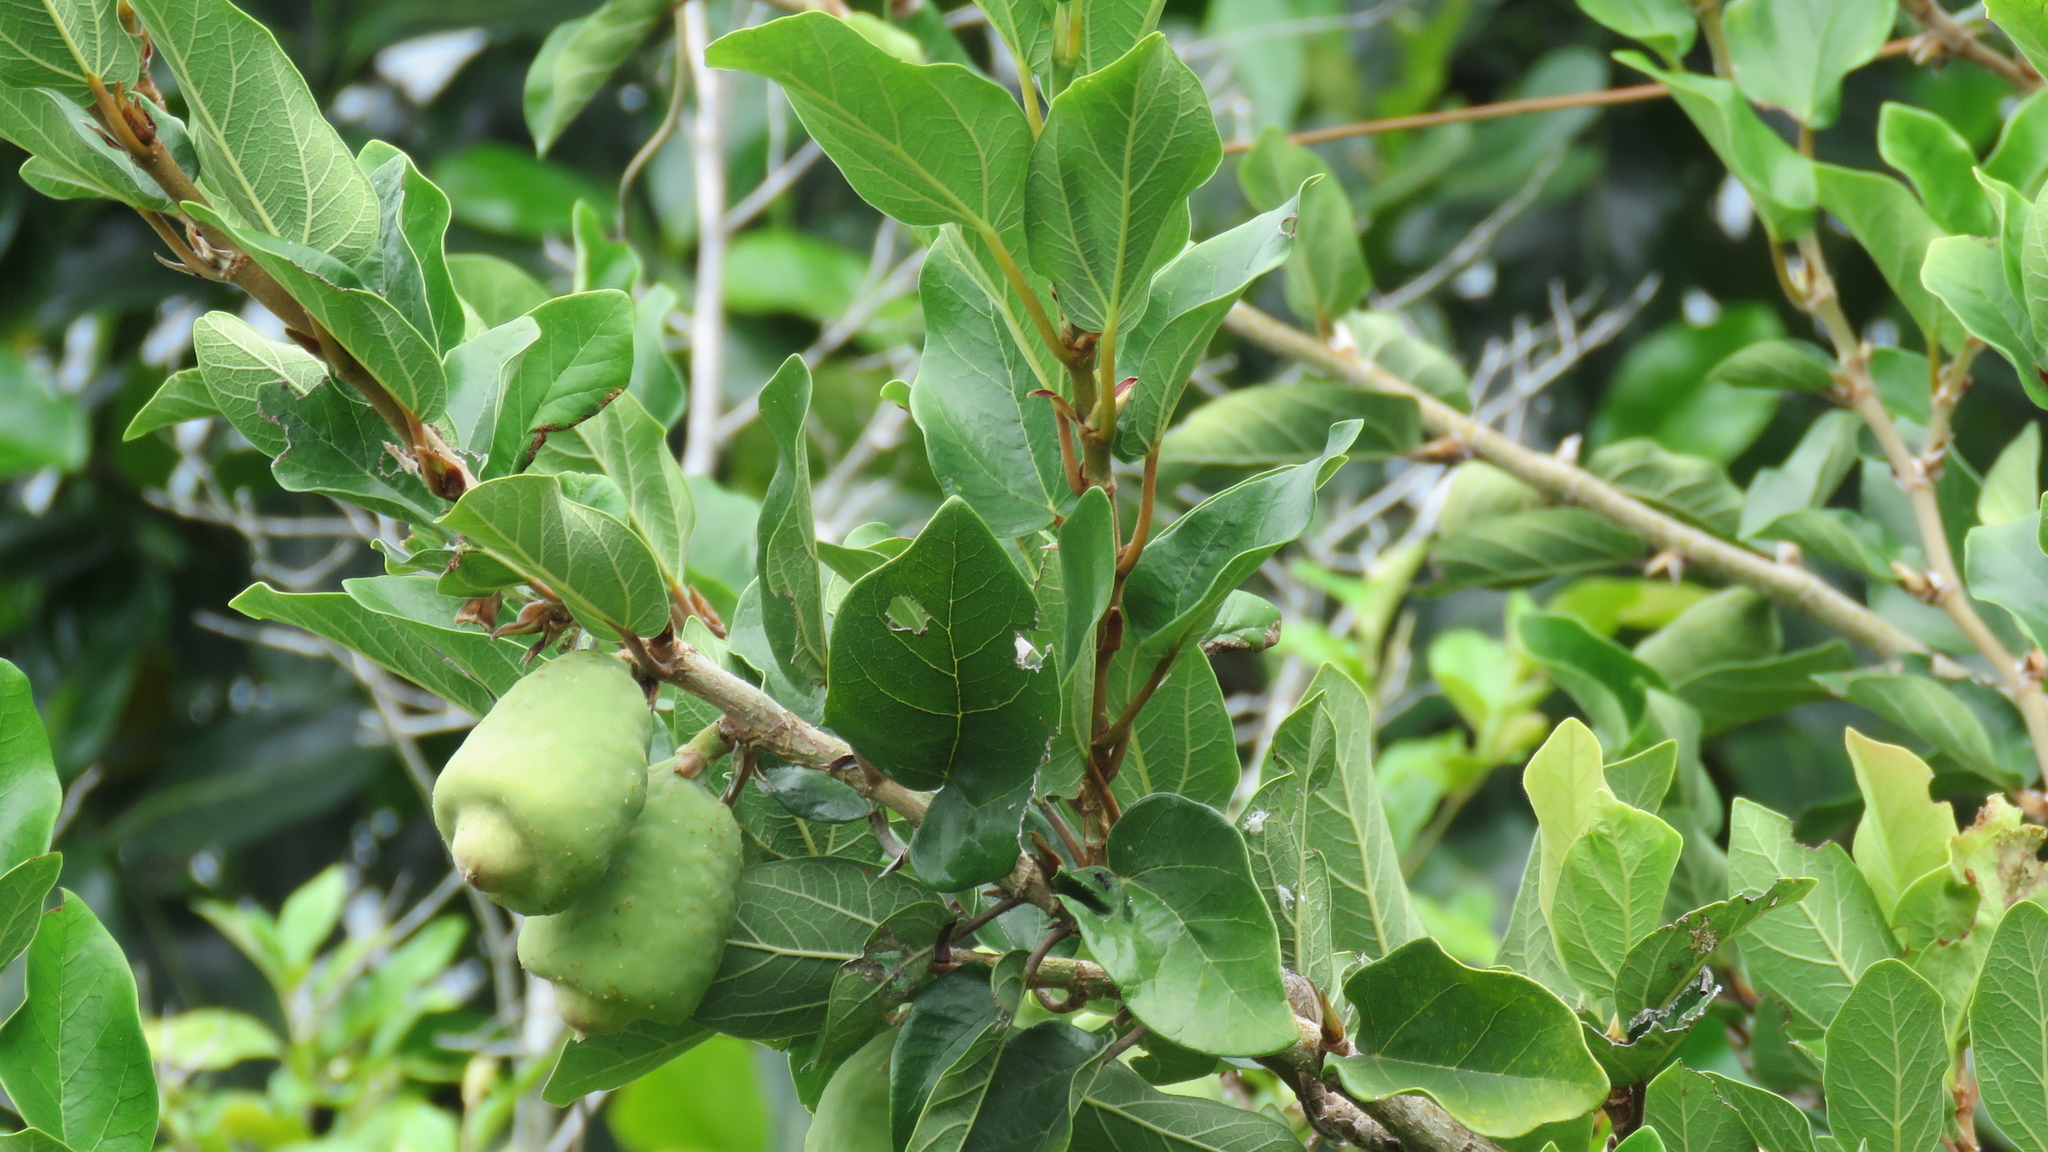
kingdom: Plantae
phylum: Tracheophyta
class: Magnoliopsida
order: Rosales
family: Moraceae
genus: Ficus
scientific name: Ficus pumila
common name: Climbingfig
